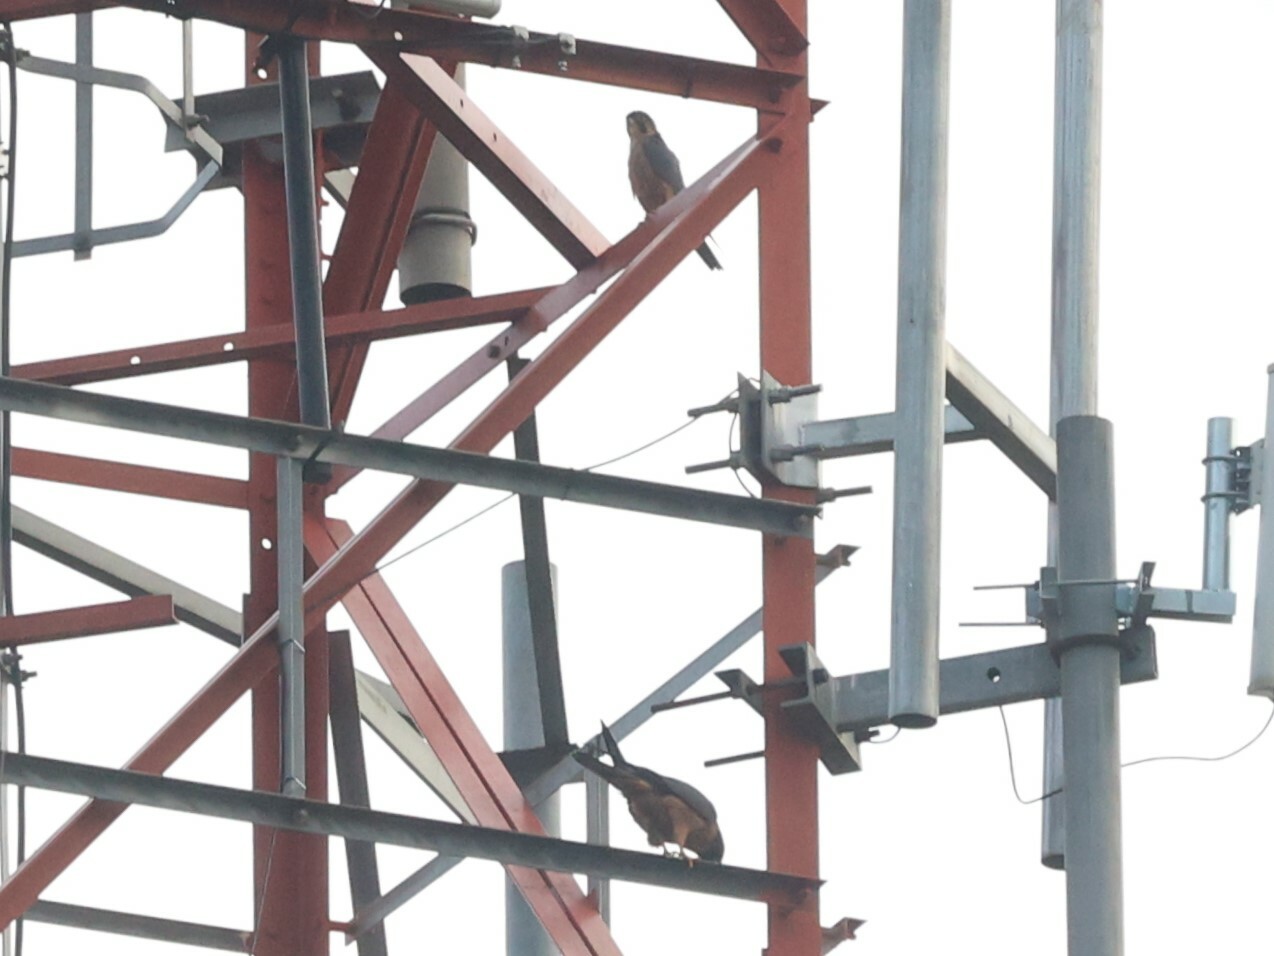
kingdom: Animalia
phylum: Chordata
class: Aves
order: Falconiformes
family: Falconidae
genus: Falco
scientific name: Falco cuvierii
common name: African hobby
